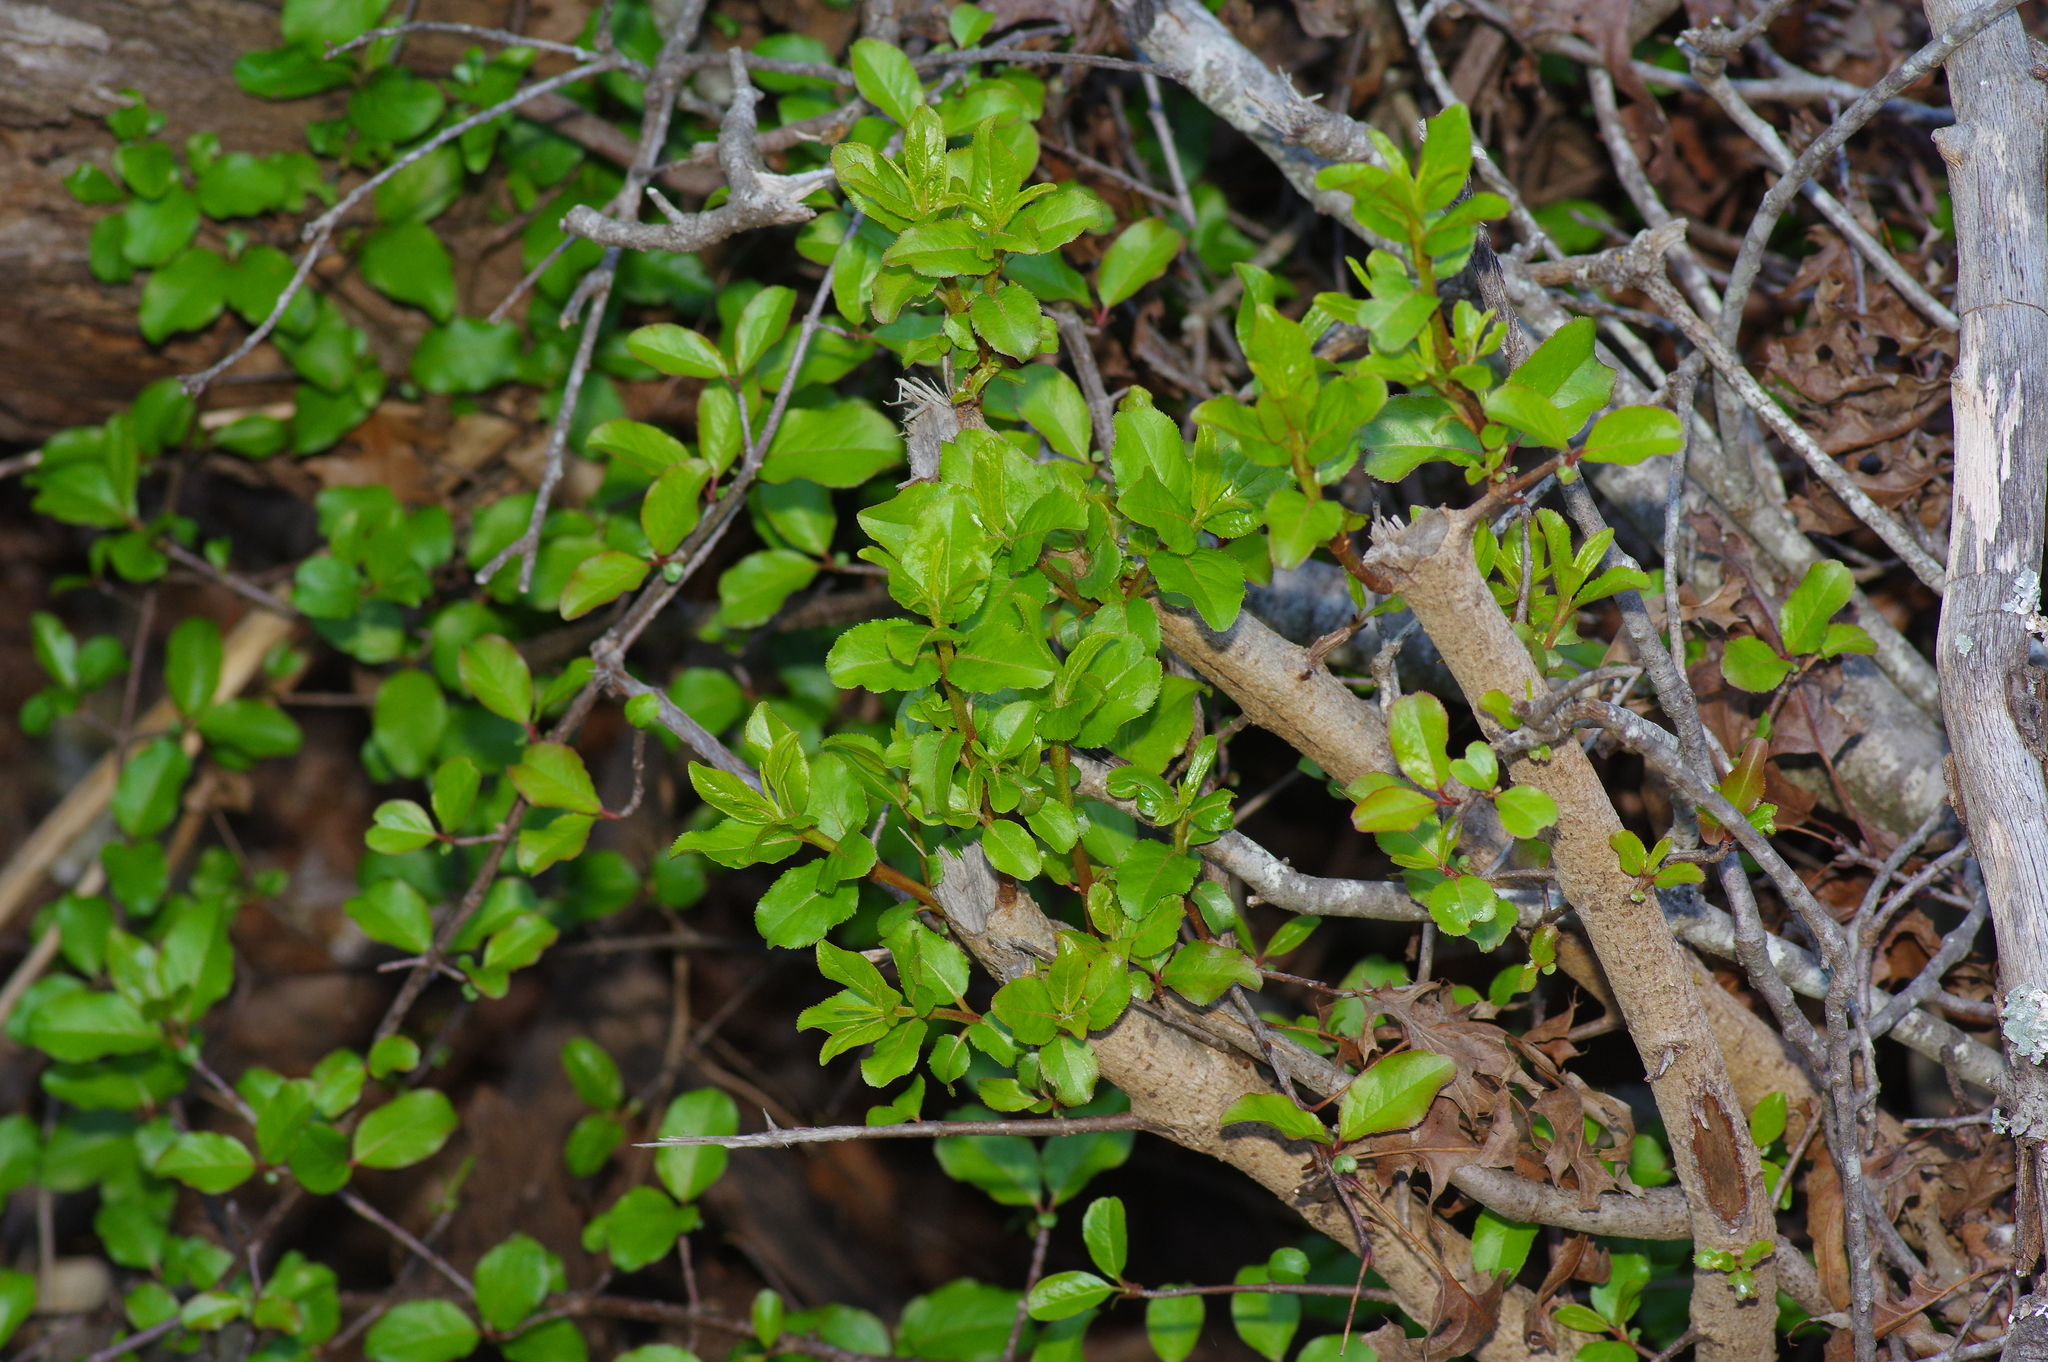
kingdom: Plantae
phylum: Tracheophyta
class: Magnoliopsida
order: Dipsacales
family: Viburnaceae
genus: Viburnum
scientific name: Viburnum rufidulum
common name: Blue haw
